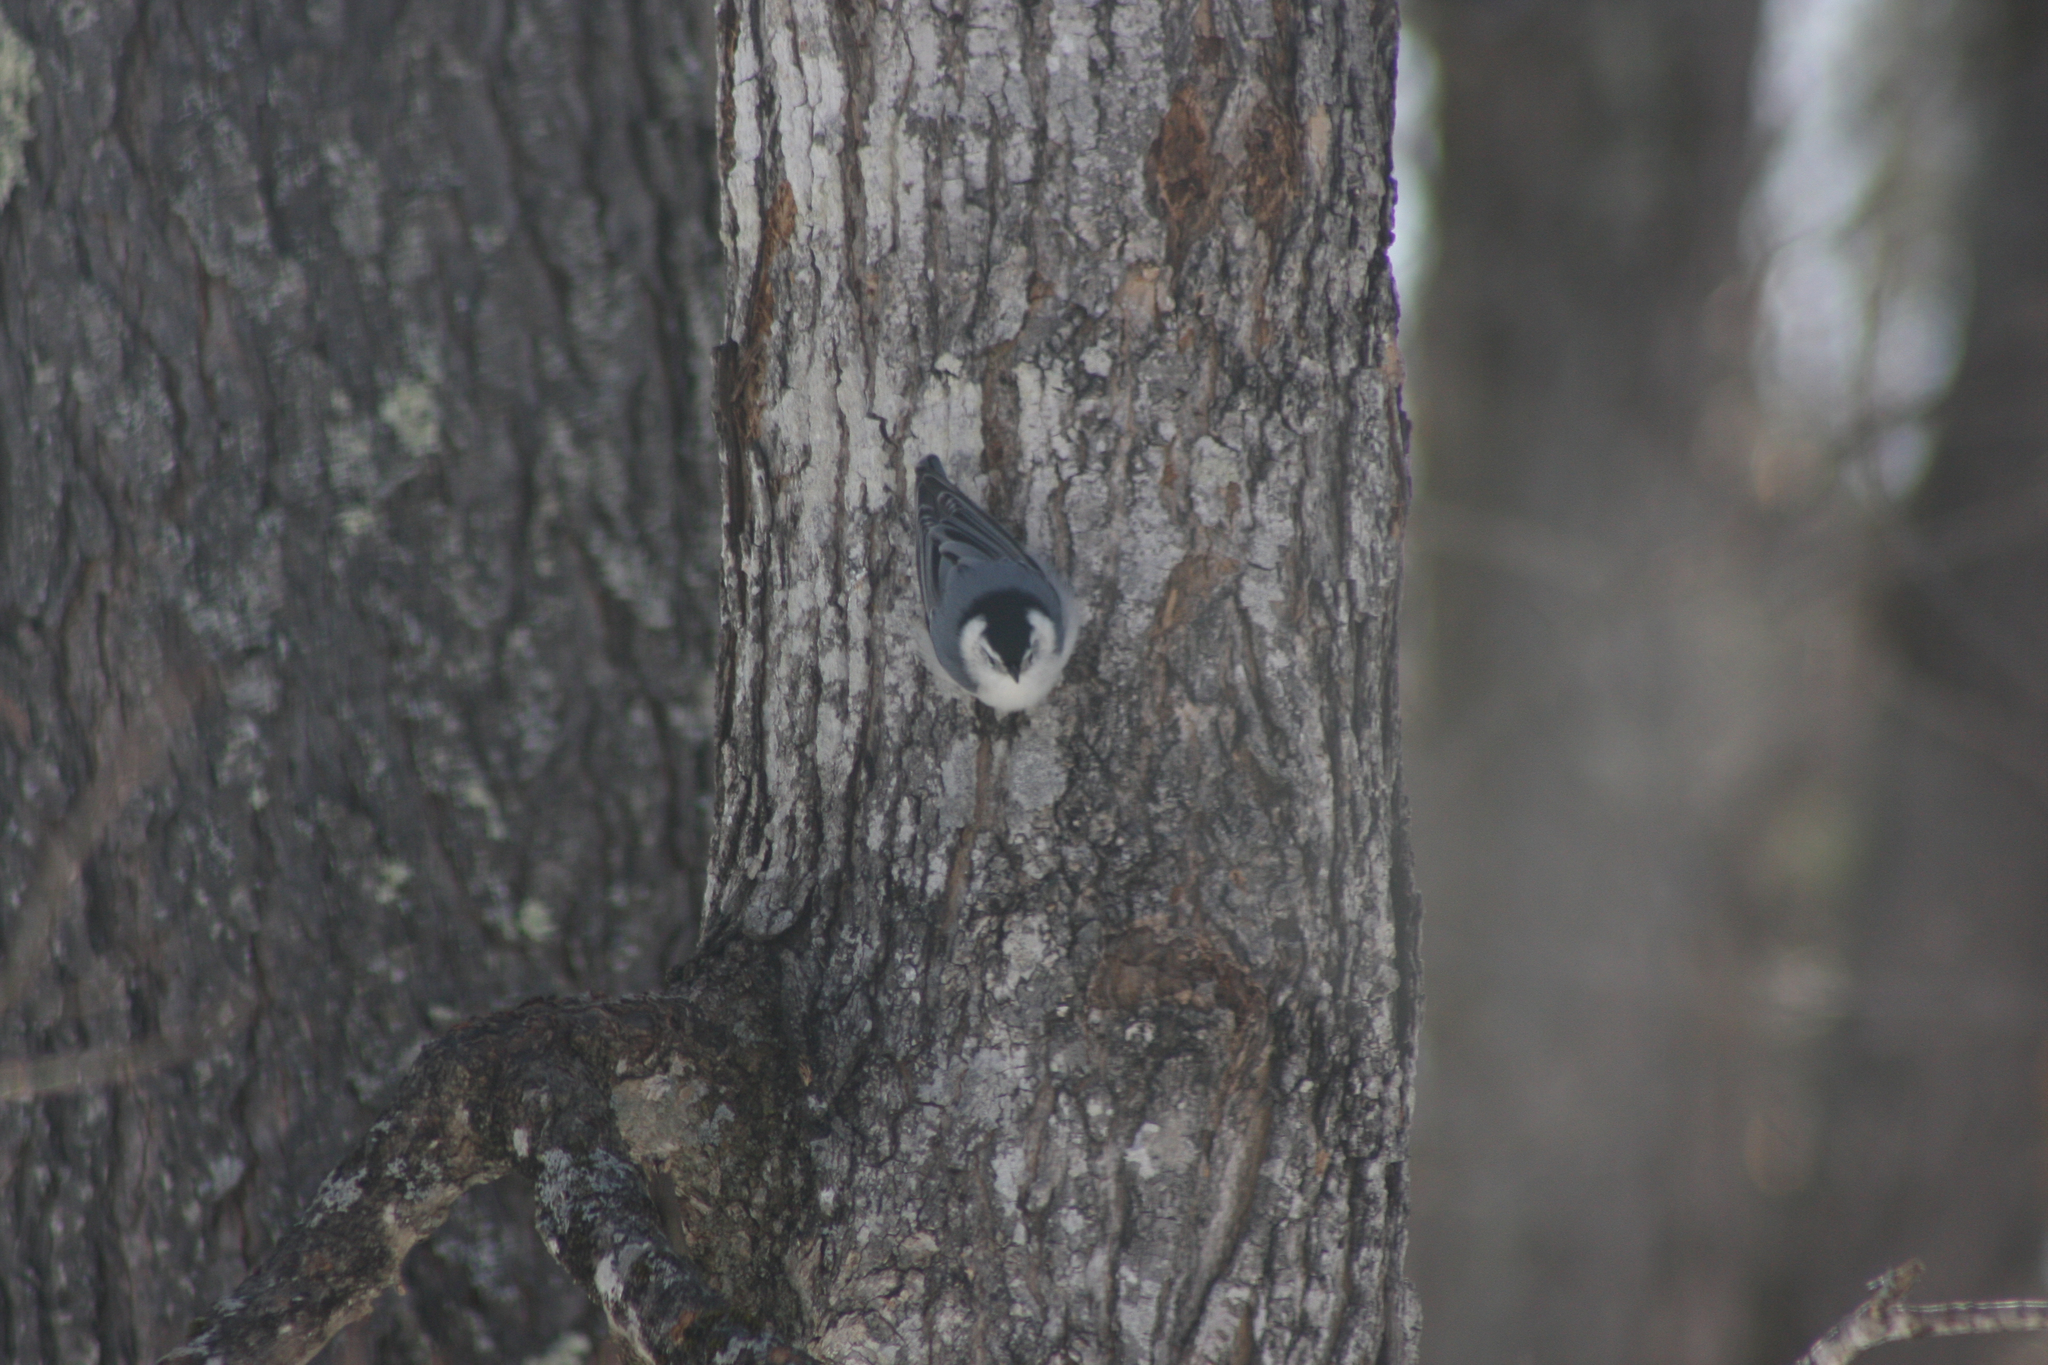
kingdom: Animalia
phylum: Chordata
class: Aves
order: Passeriformes
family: Sittidae
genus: Sitta
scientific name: Sitta carolinensis
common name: White-breasted nuthatch
